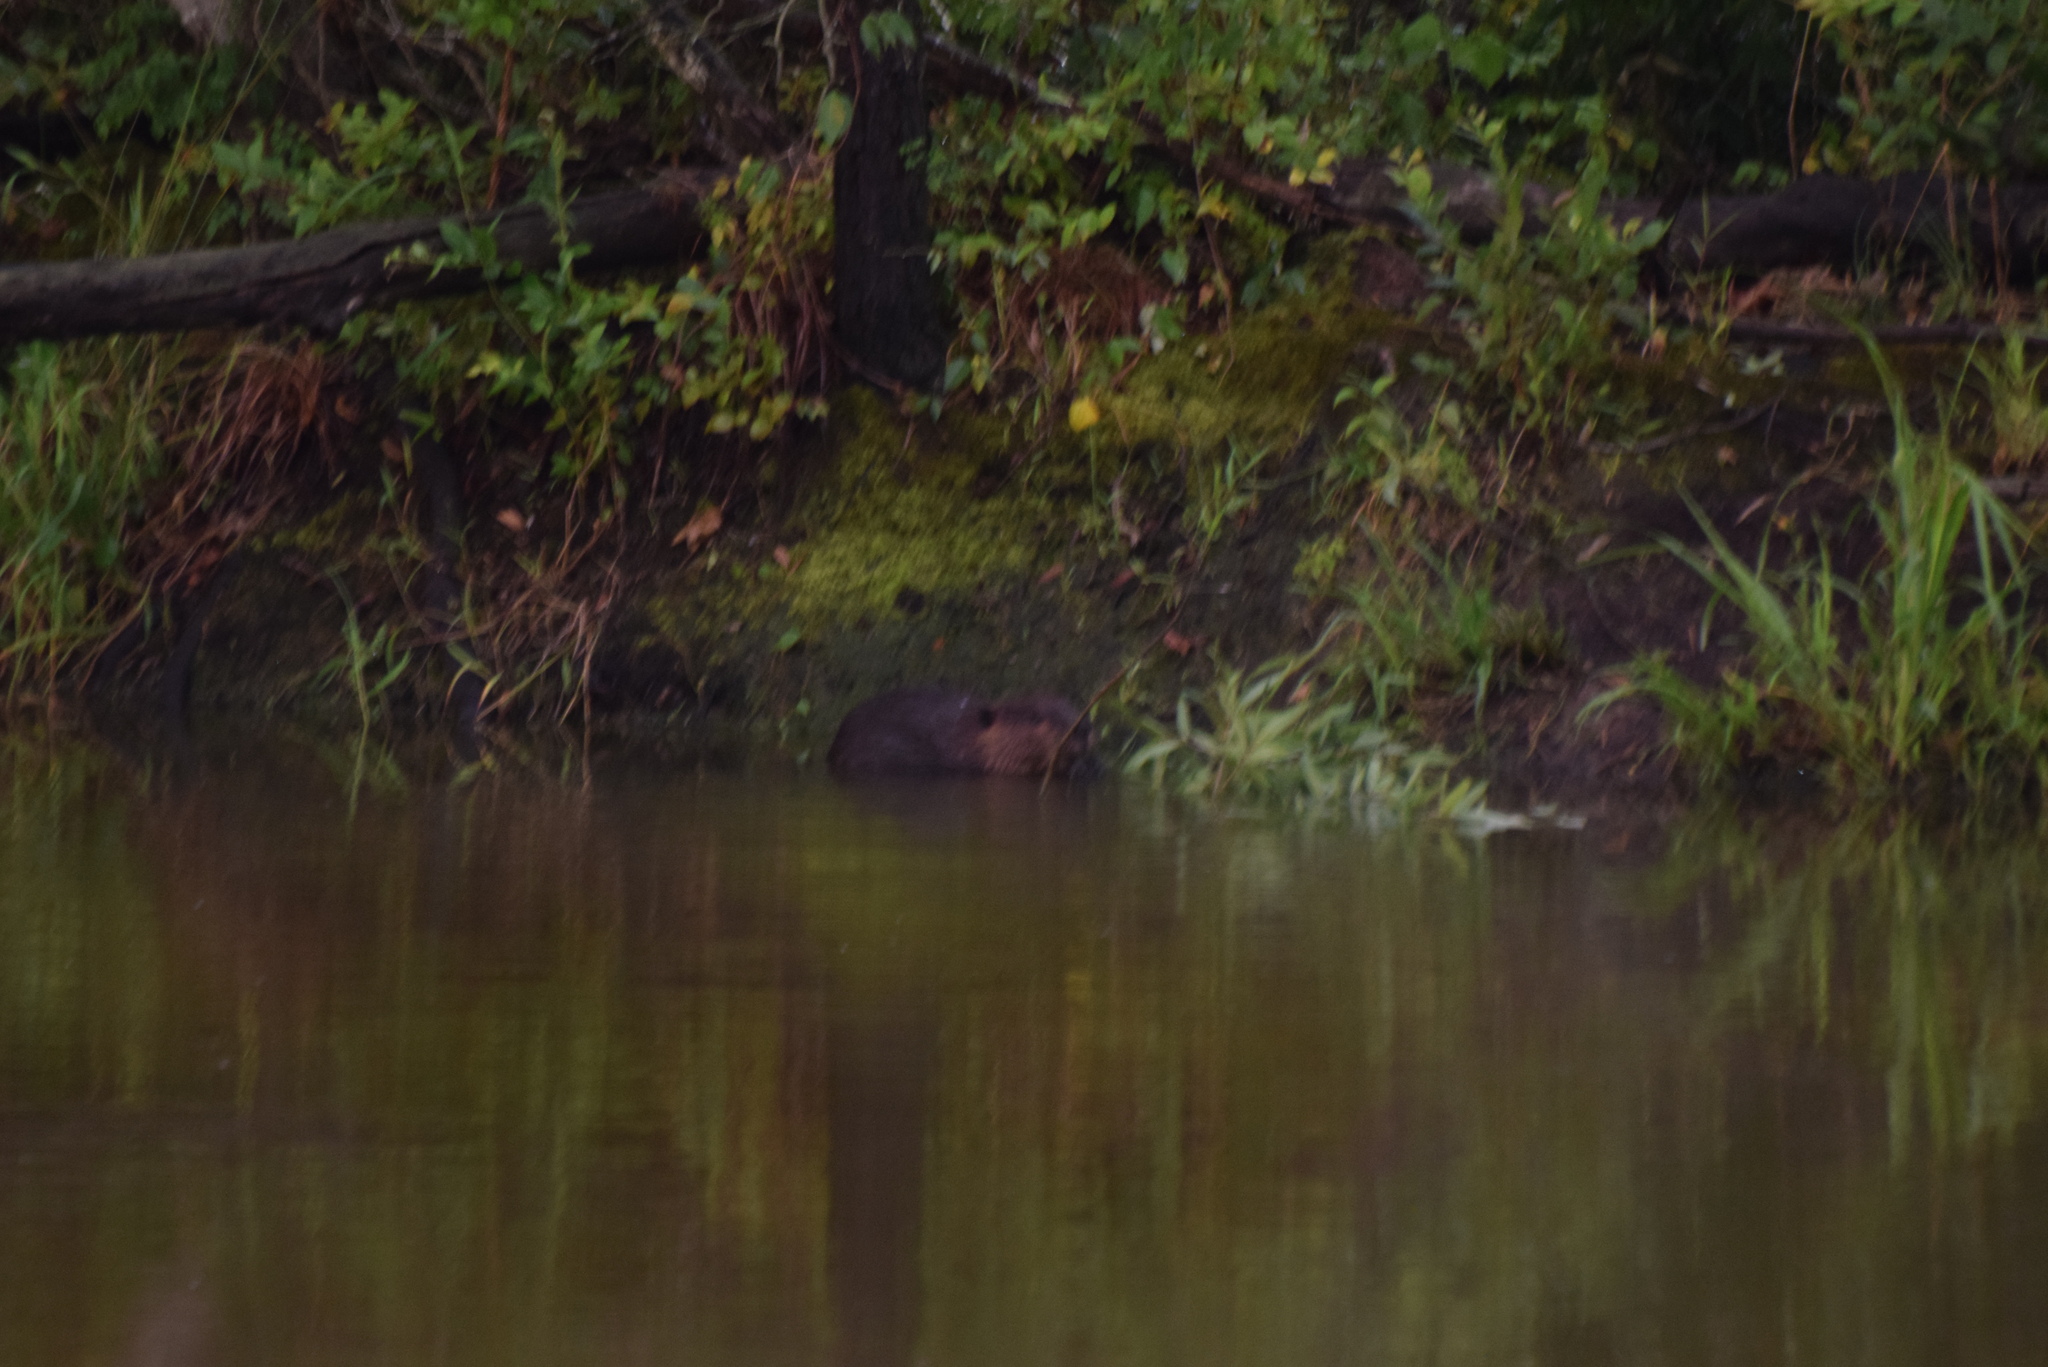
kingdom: Animalia
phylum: Chordata
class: Mammalia
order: Rodentia
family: Castoridae
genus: Castor
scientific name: Castor canadensis
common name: American beaver
